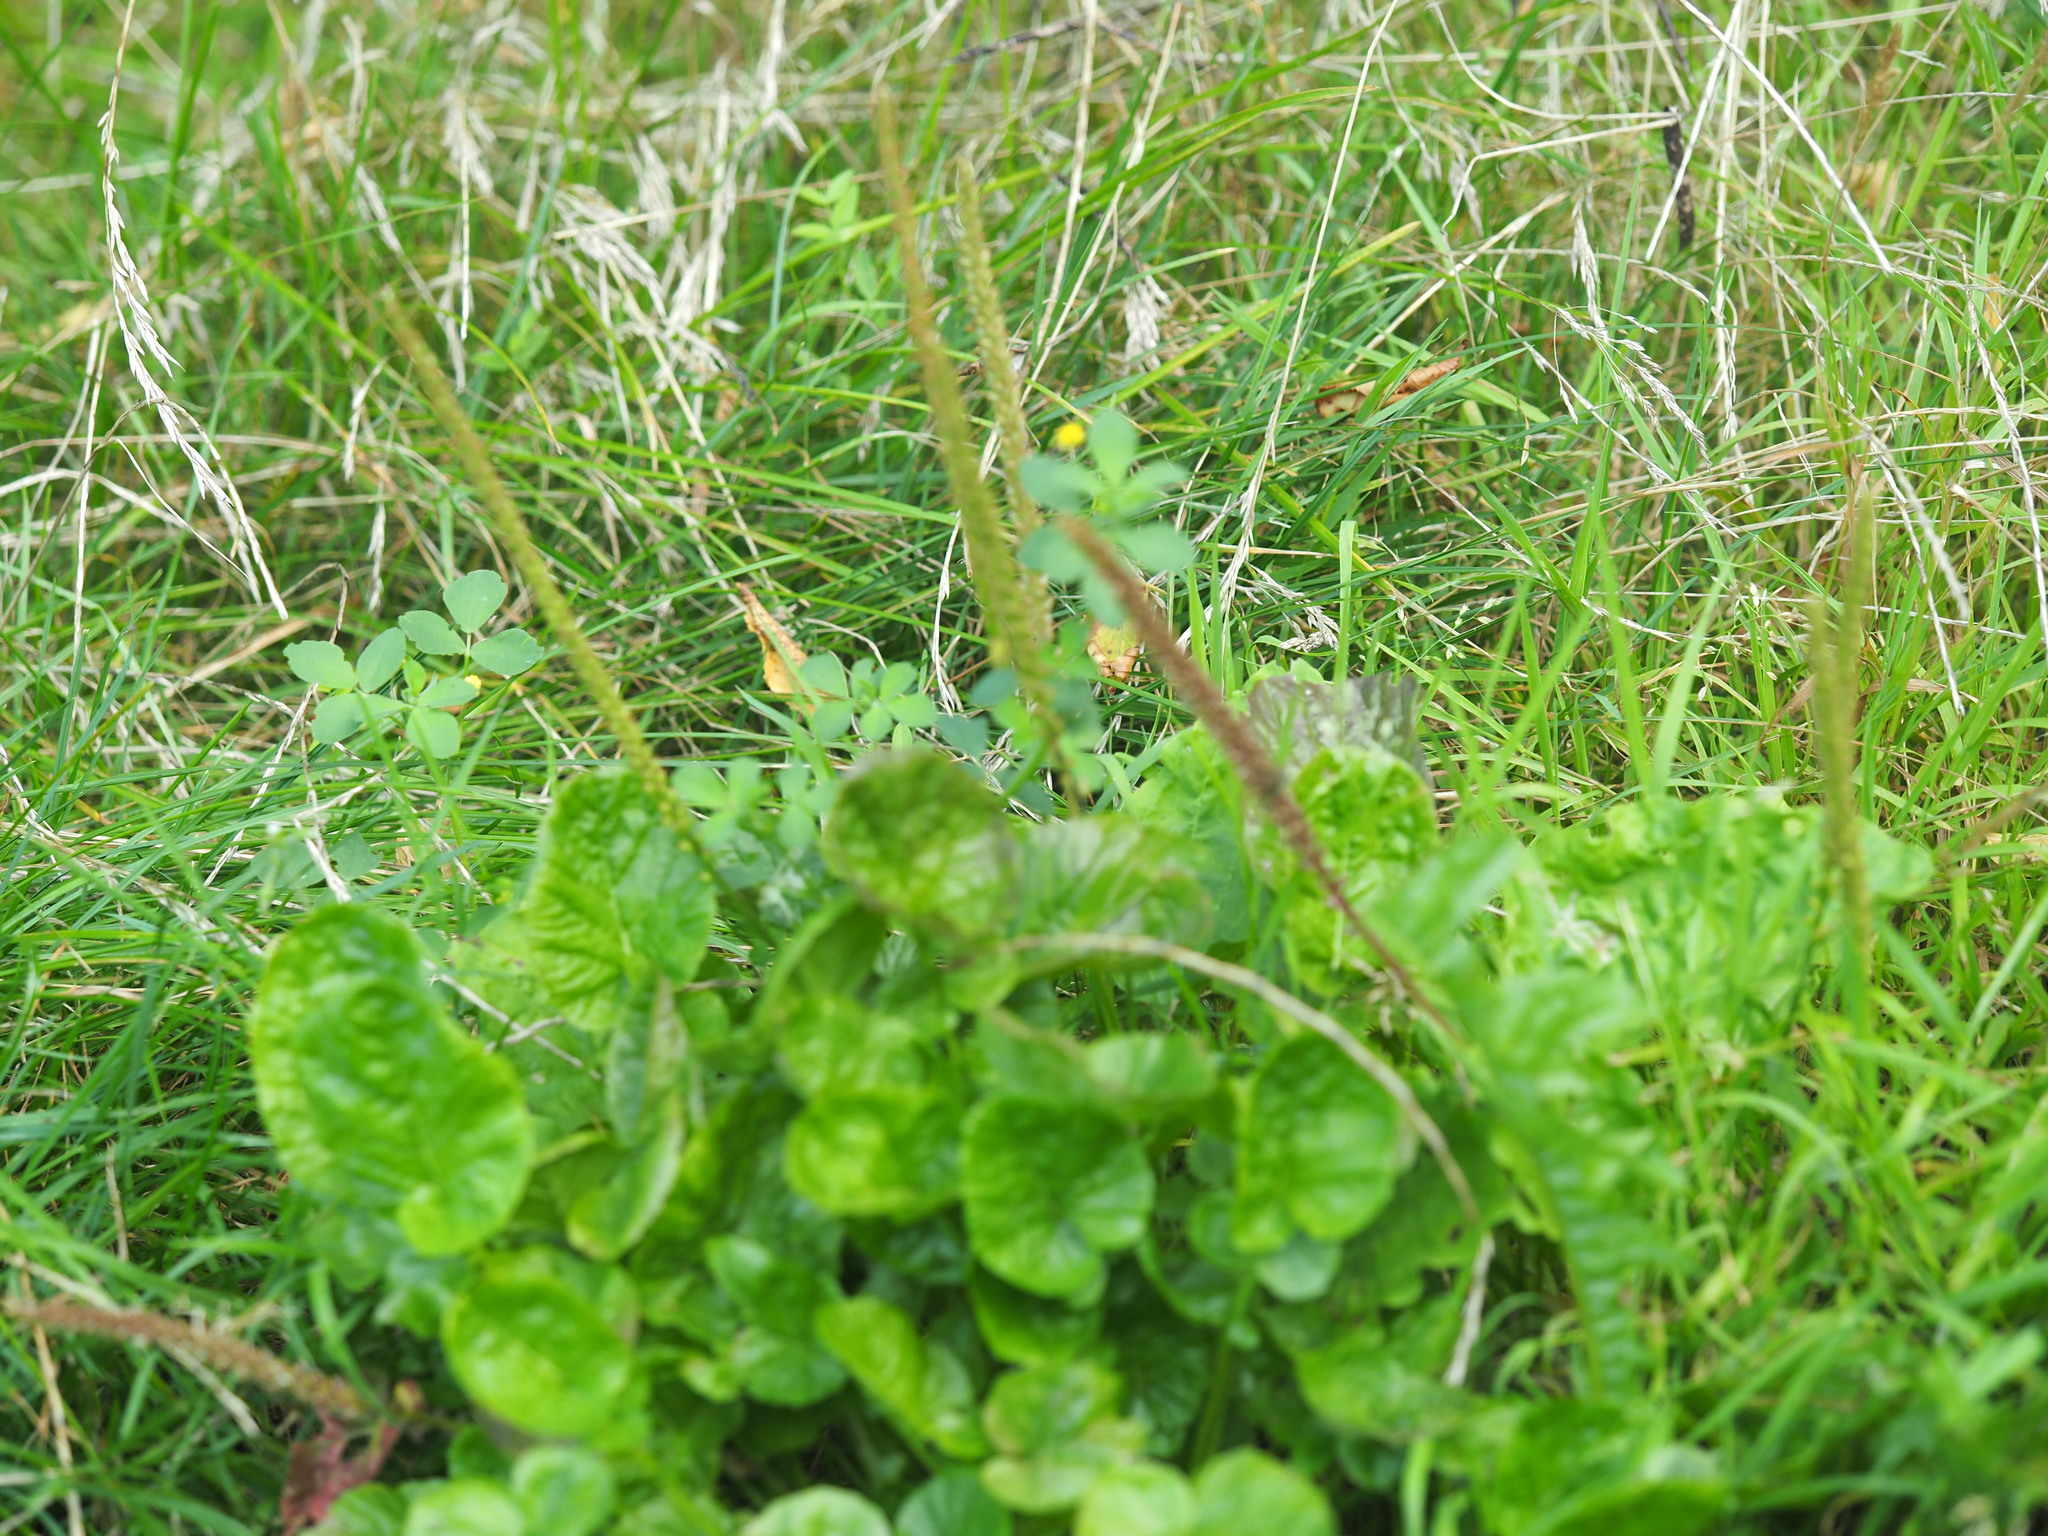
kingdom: Plantae
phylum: Tracheophyta
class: Magnoliopsida
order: Lamiales
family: Plantaginaceae
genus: Plantago
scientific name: Plantago major
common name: Common plantain
